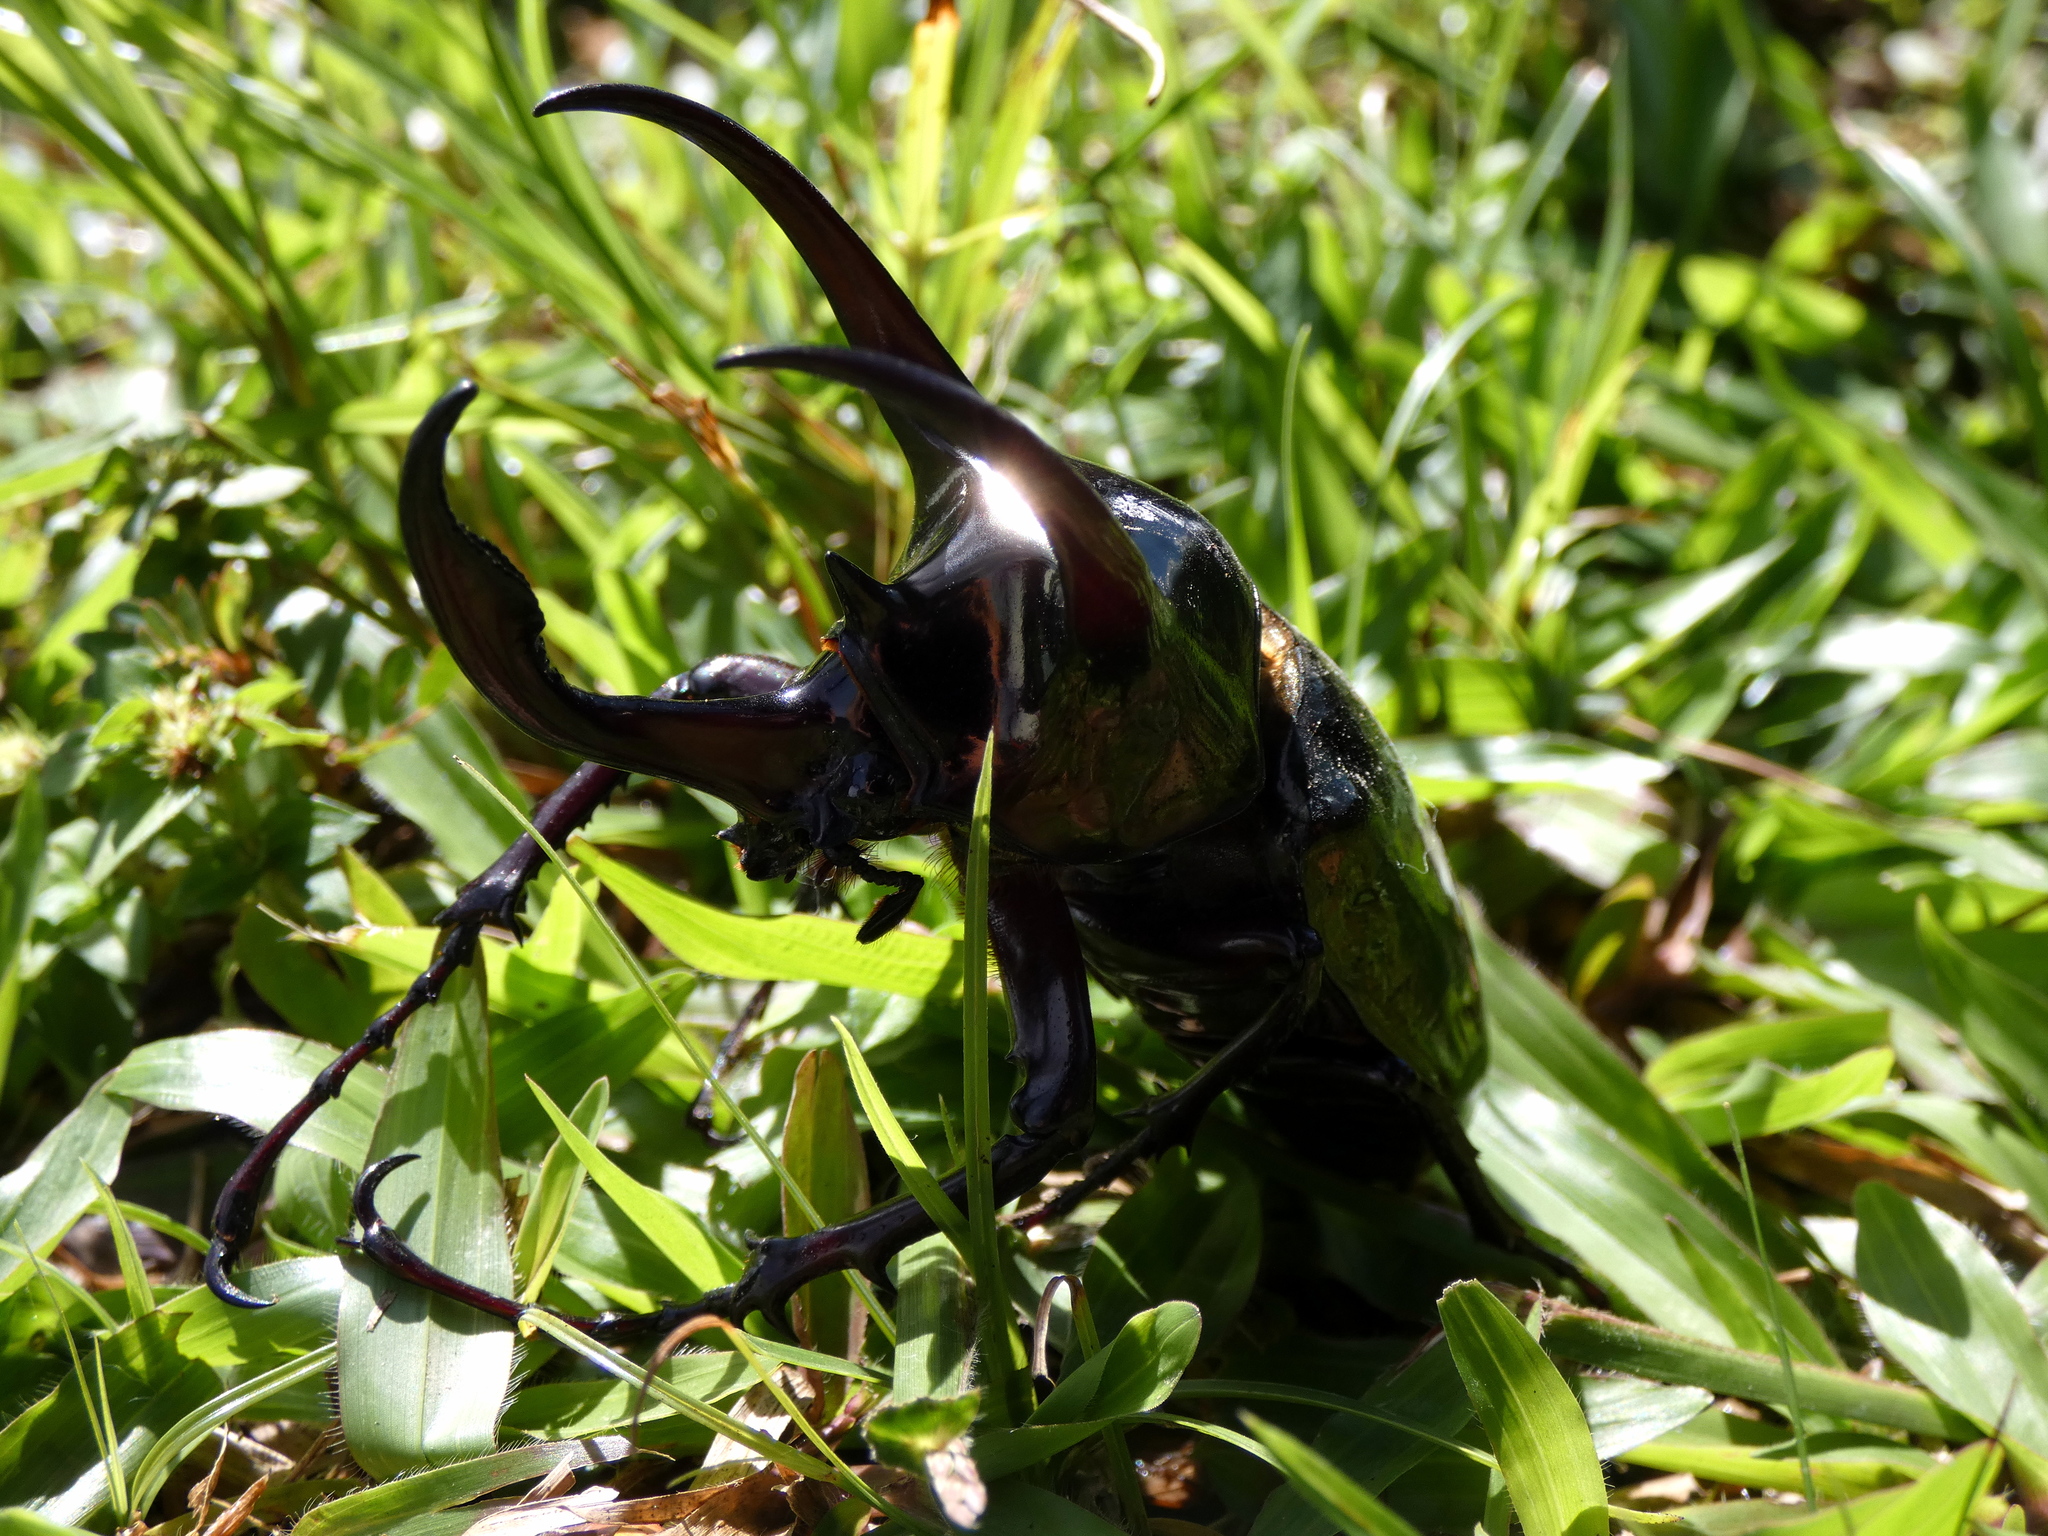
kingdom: Animalia
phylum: Arthropoda
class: Insecta
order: Coleoptera
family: Scarabaeidae
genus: Chalcosoma
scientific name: Chalcosoma atlas
